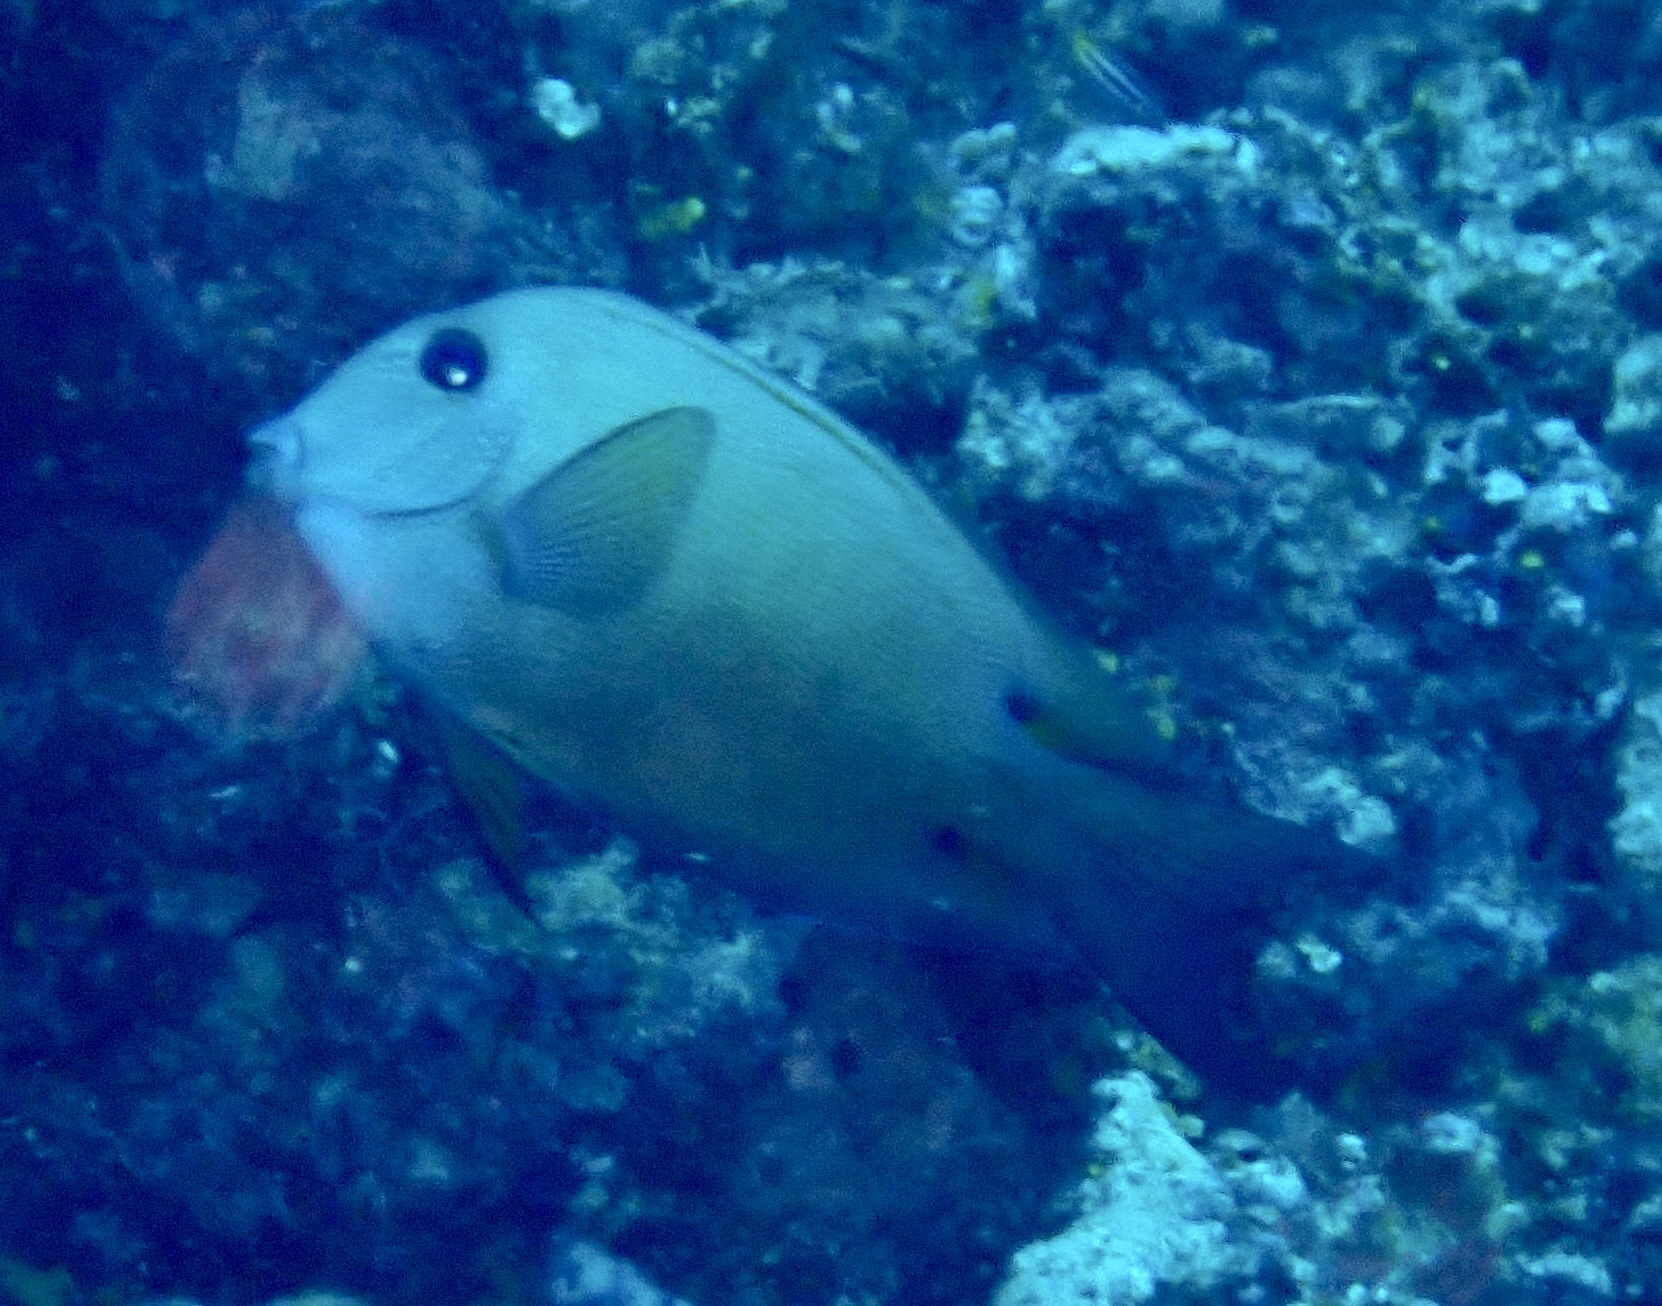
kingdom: Animalia
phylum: Chordata
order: Perciformes
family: Acanthuridae
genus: Ctenochaetus
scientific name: Ctenochaetus binotatus
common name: Two-spot bristletooth
